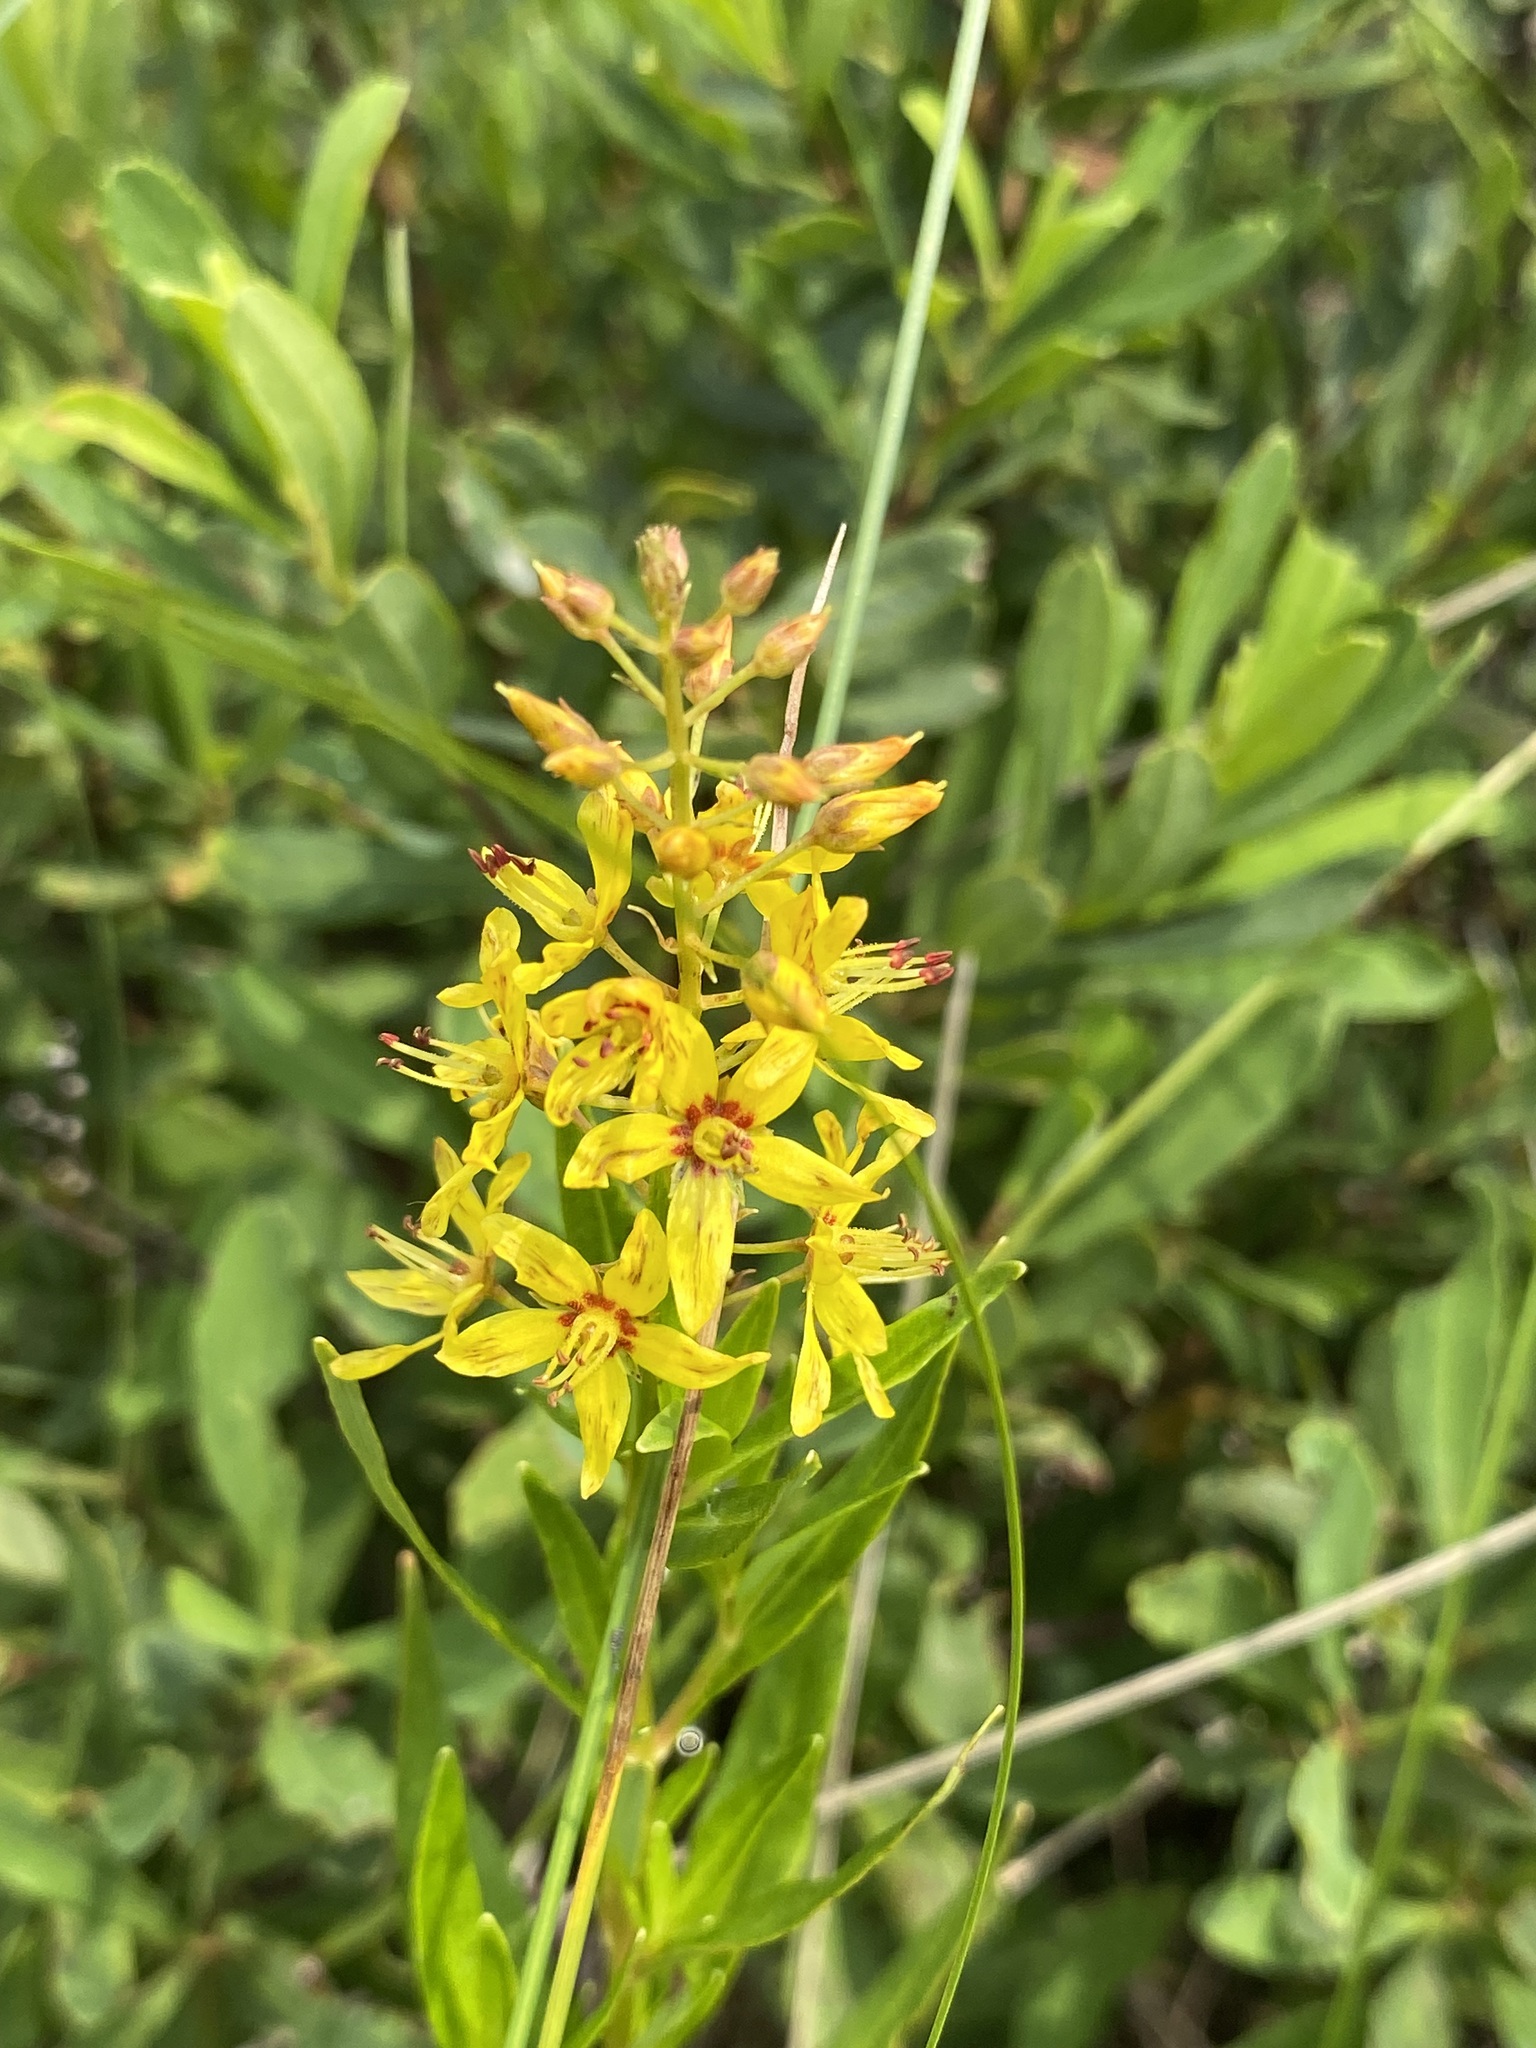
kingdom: Plantae
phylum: Tracheophyta
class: Magnoliopsida
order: Ericales
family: Primulaceae
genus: Lysimachia
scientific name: Lysimachia terrestris
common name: Lake loosestrife
